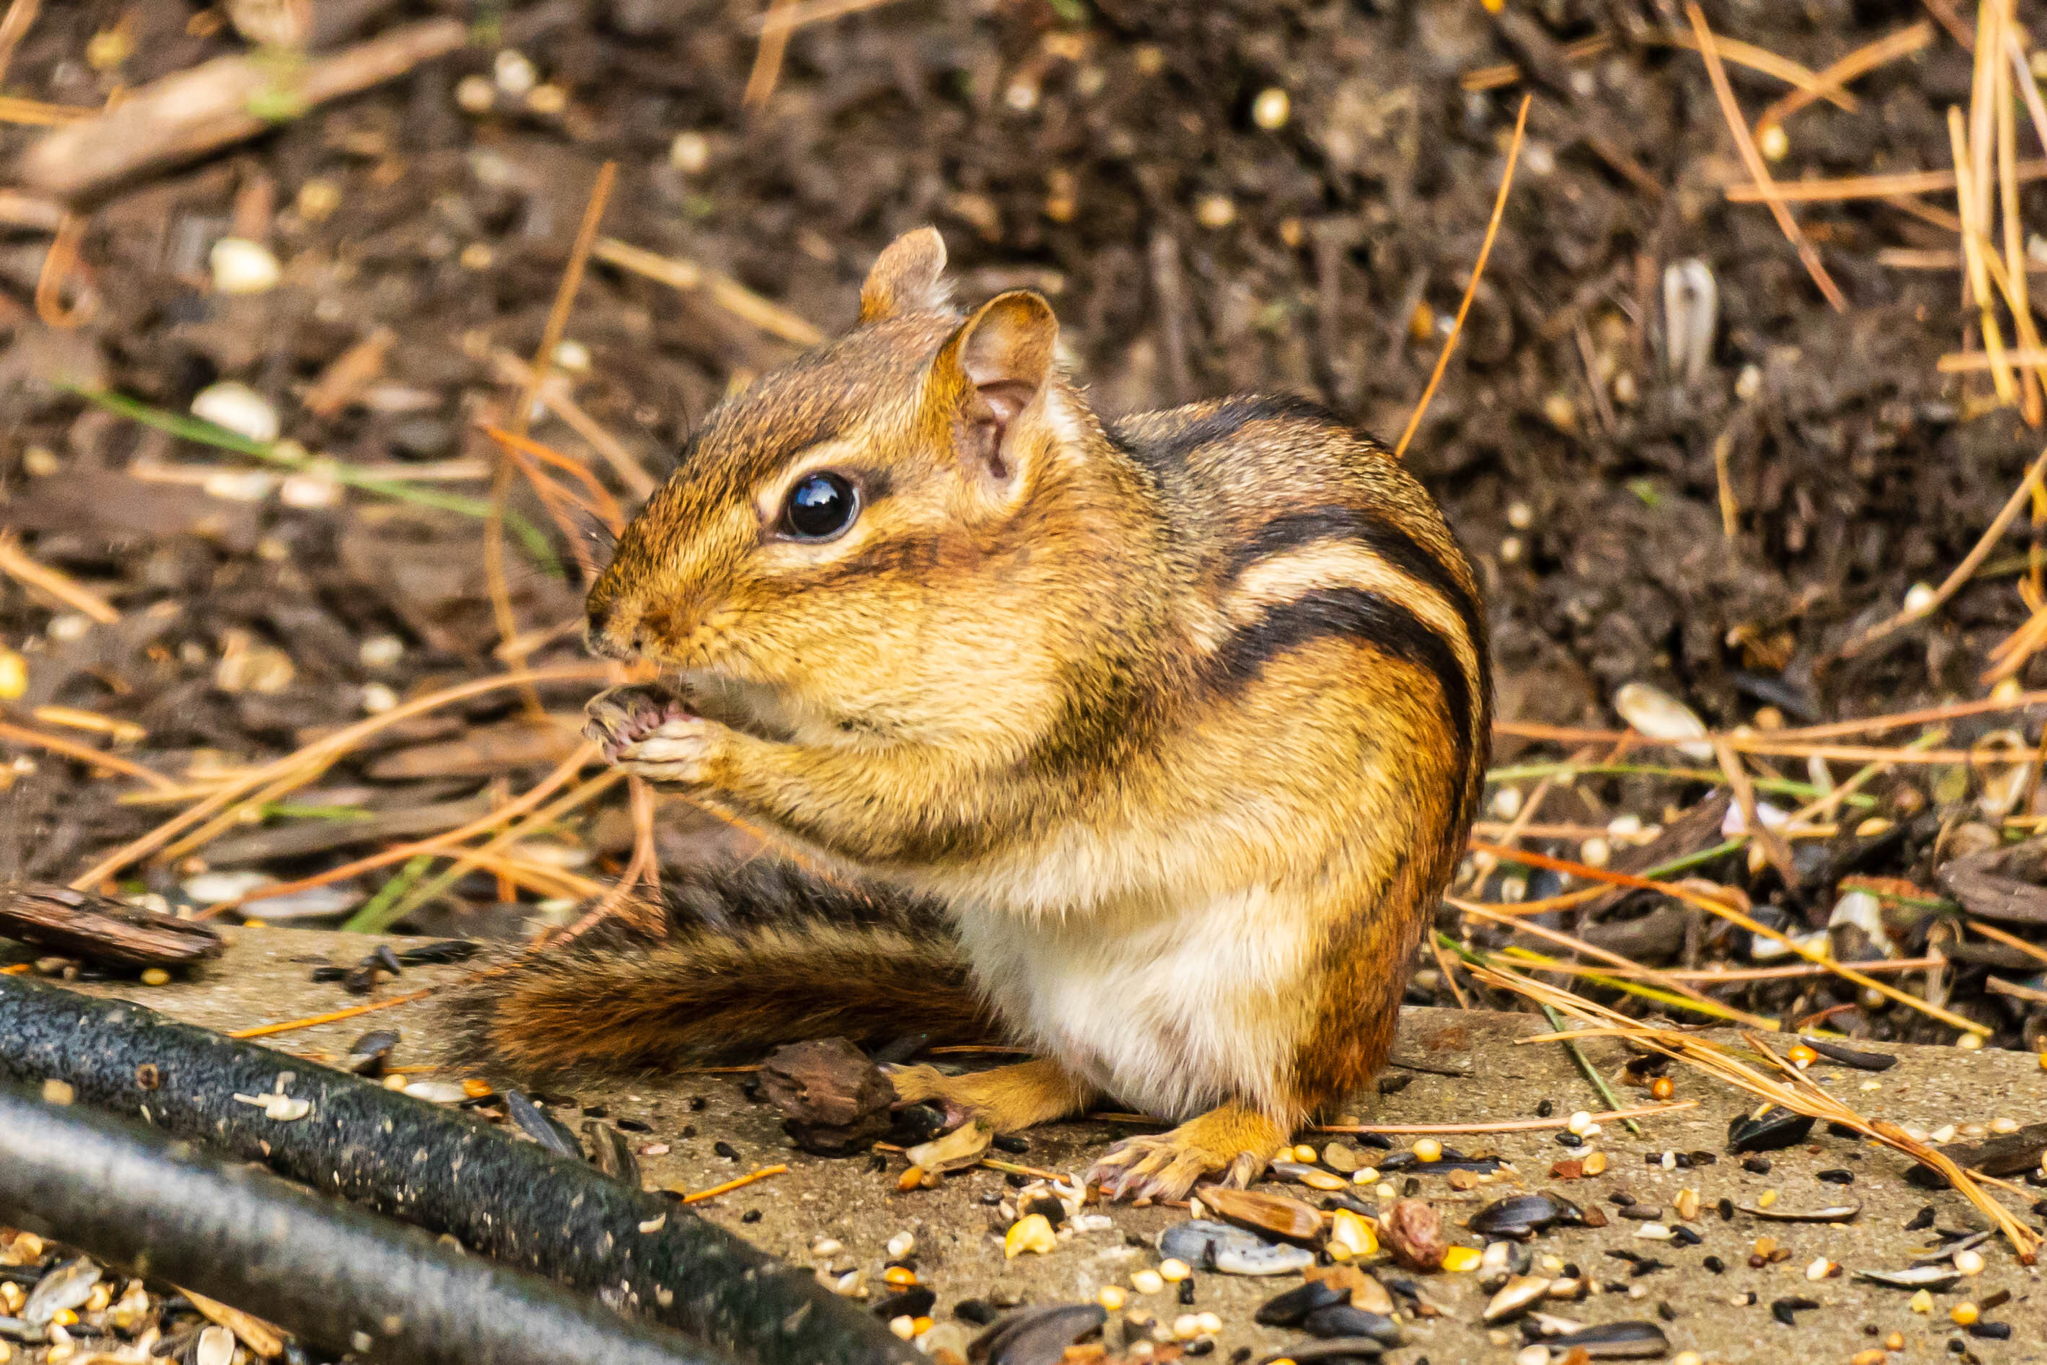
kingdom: Animalia
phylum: Chordata
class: Mammalia
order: Rodentia
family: Sciuridae
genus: Tamias
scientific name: Tamias striatus
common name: Eastern chipmunk
